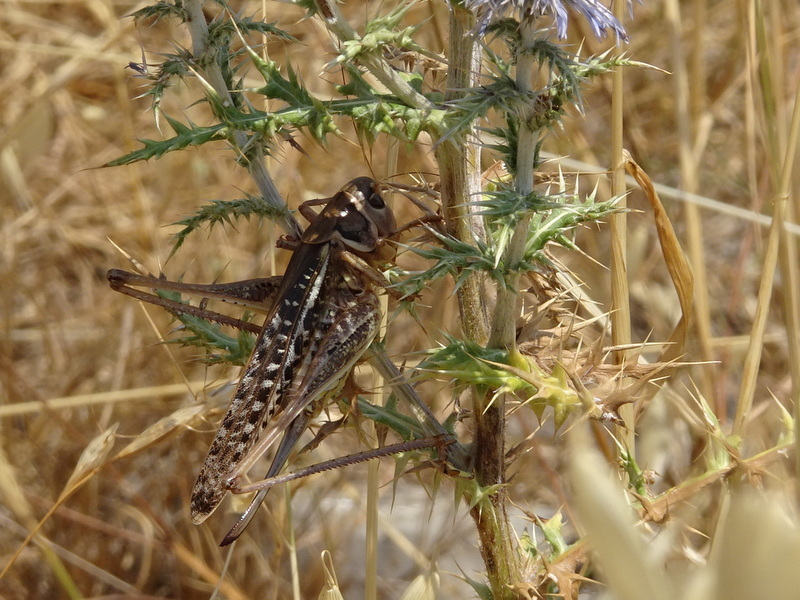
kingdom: Animalia
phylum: Arthropoda
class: Insecta
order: Orthoptera
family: Tettigoniidae
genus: Decticus
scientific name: Decticus albifrons
